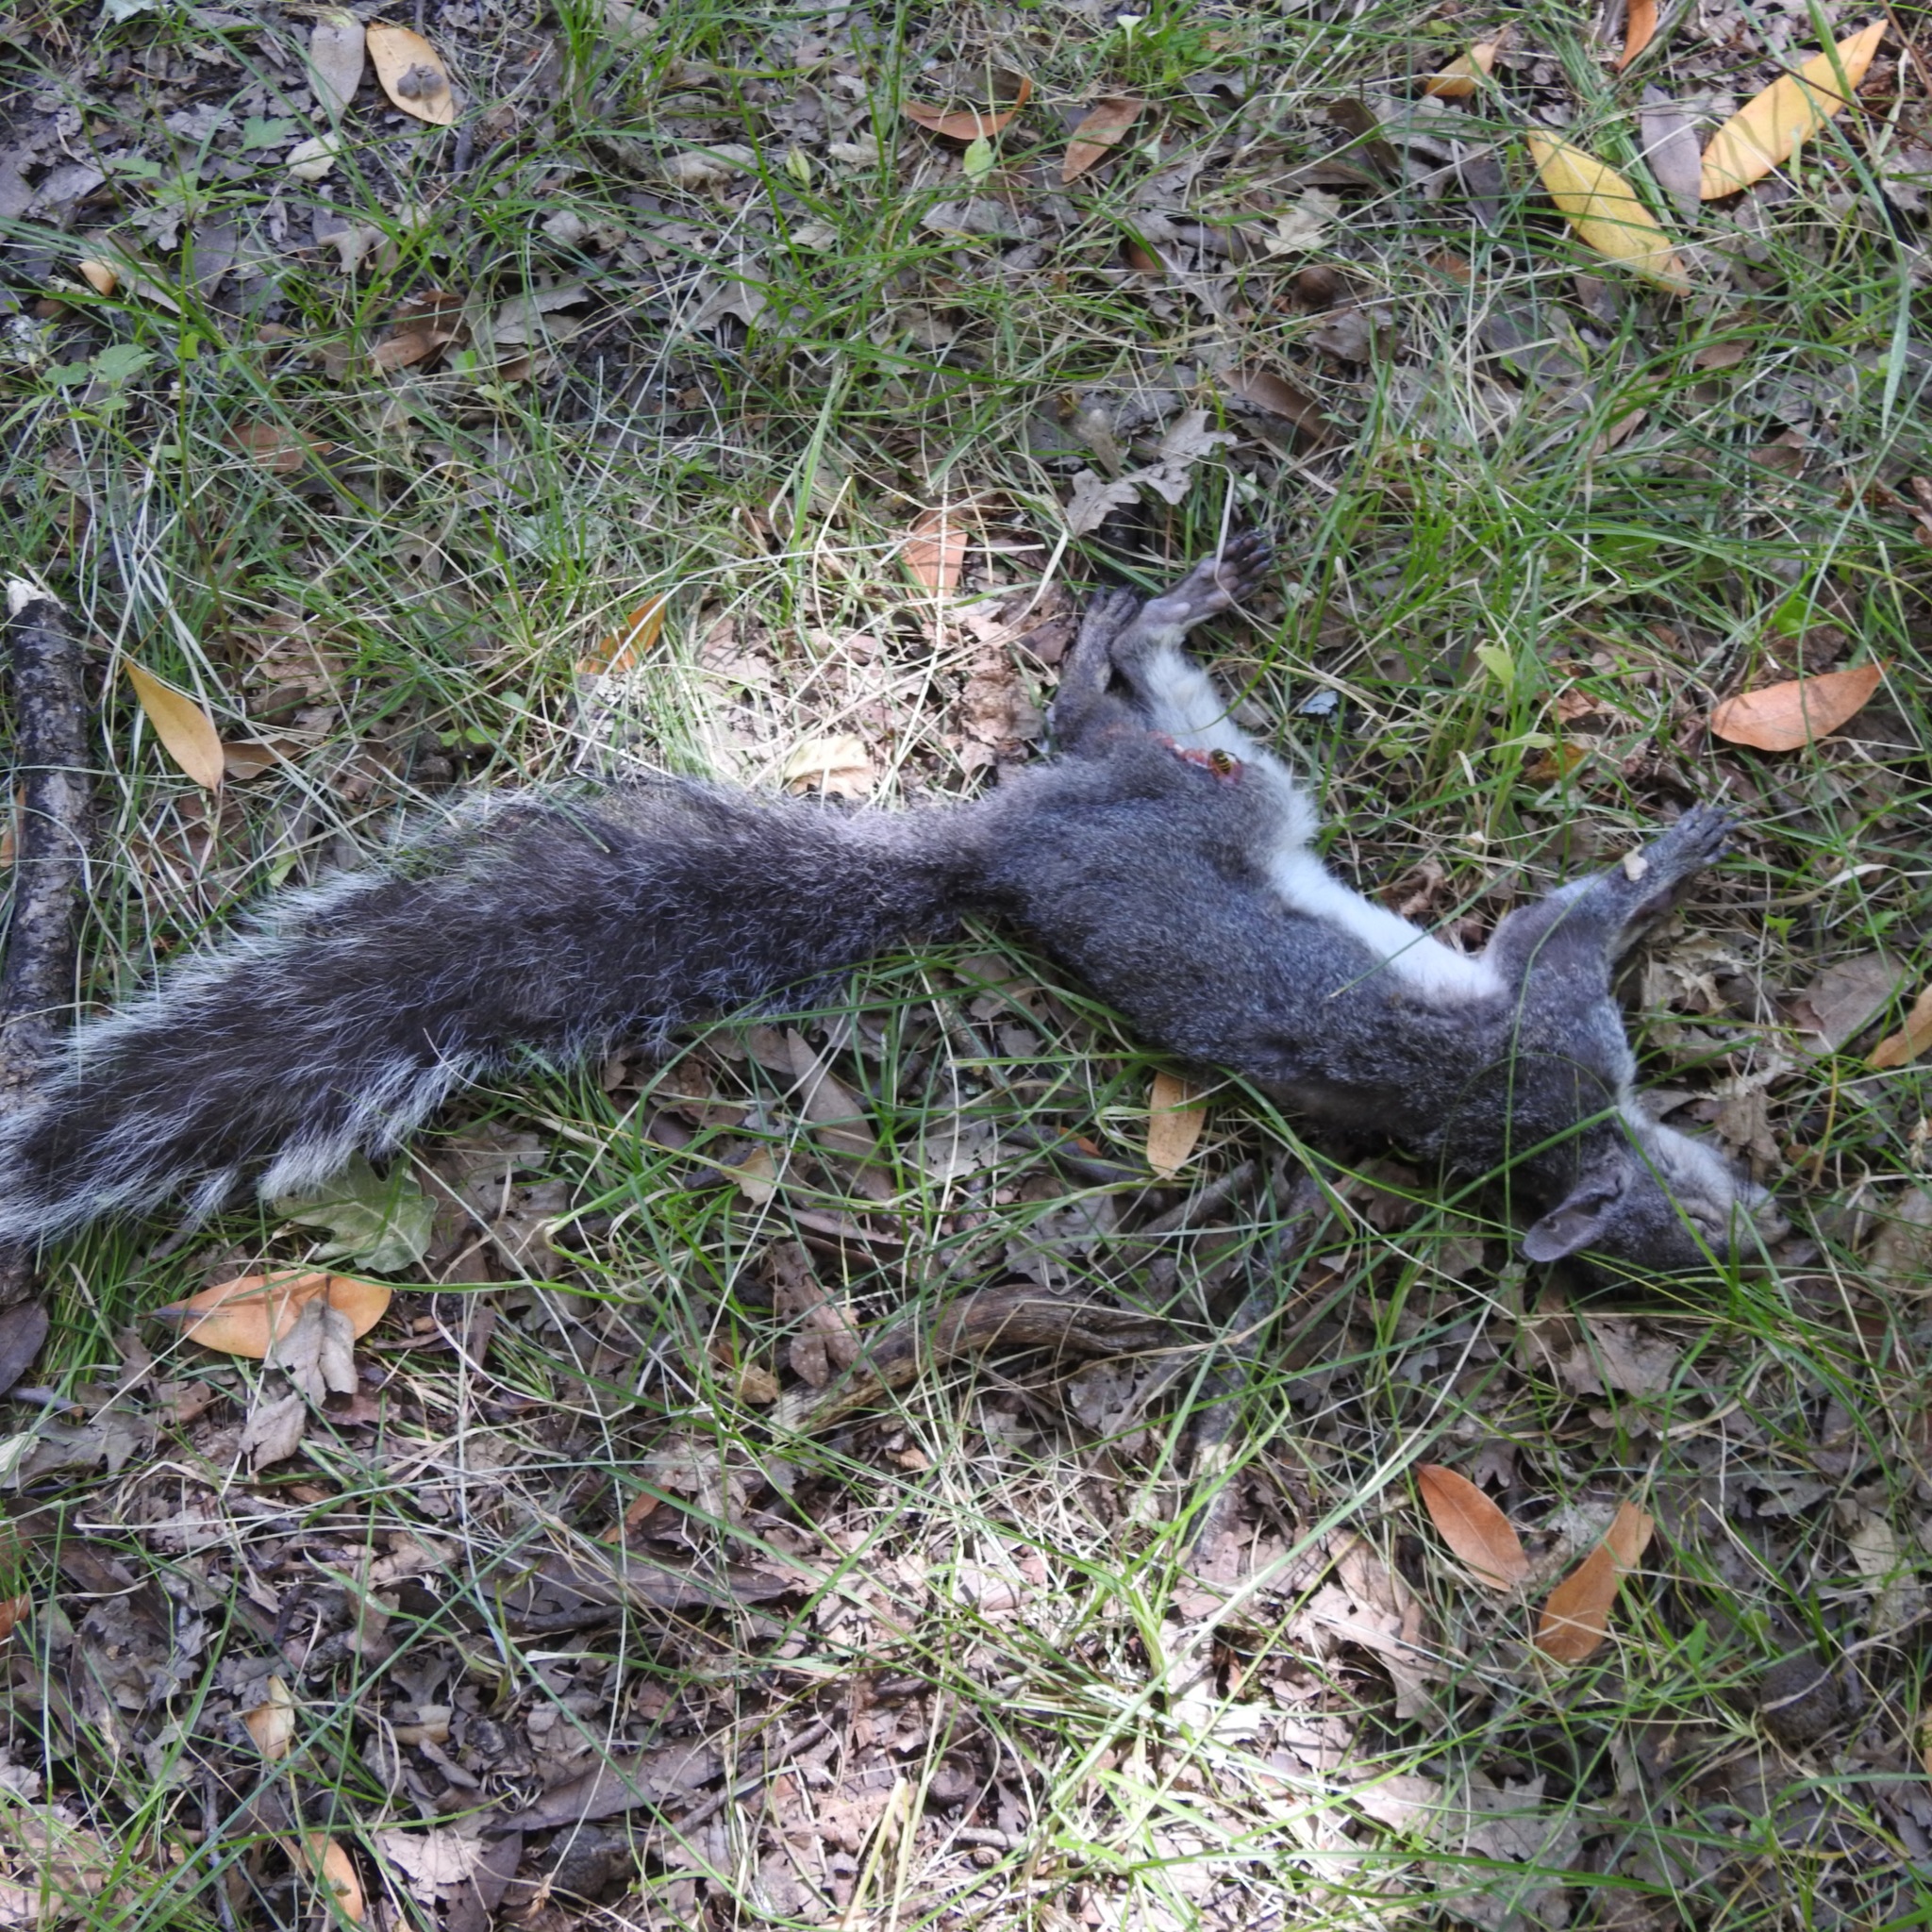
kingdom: Animalia
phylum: Chordata
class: Mammalia
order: Rodentia
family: Sciuridae
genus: Sciurus
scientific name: Sciurus griseus
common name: Western gray squirrel
